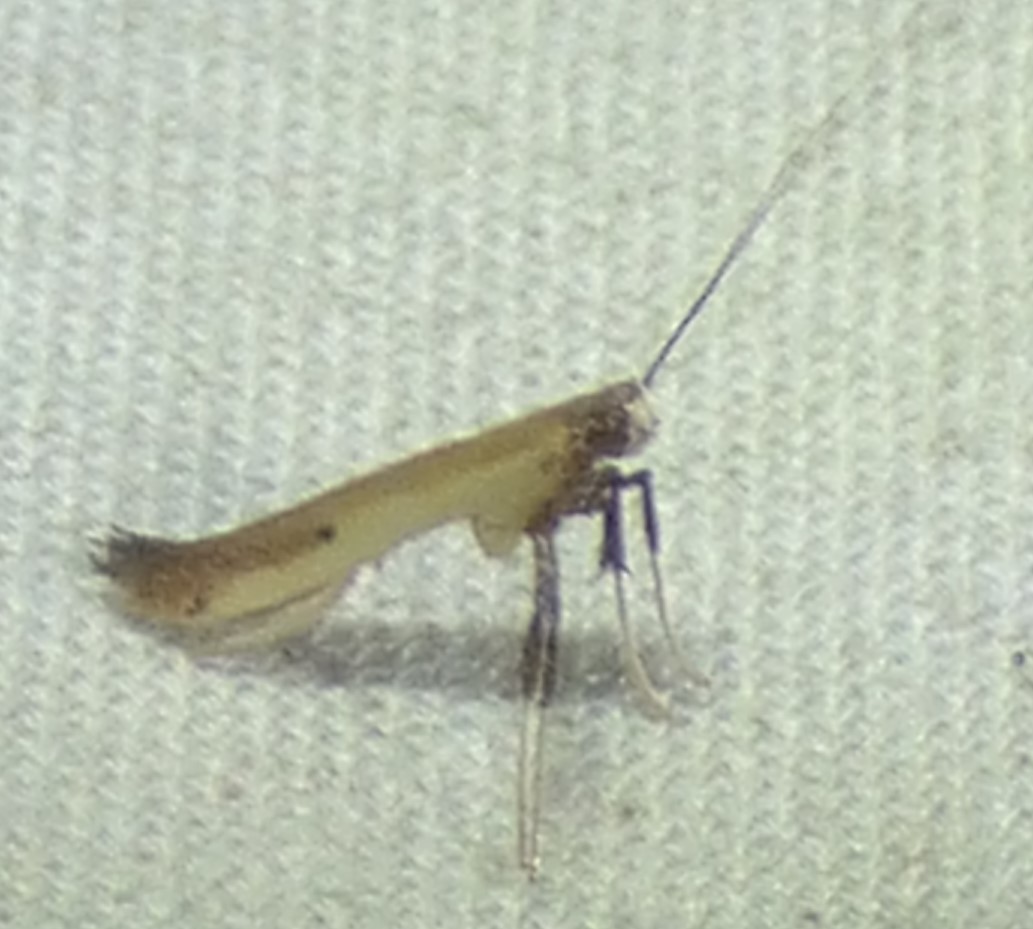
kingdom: Animalia
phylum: Arthropoda
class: Insecta
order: Lepidoptera
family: Gracillariidae
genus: Caloptilia
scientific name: Caloptilia violacella
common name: Tick-trefoil caloptilia moth
